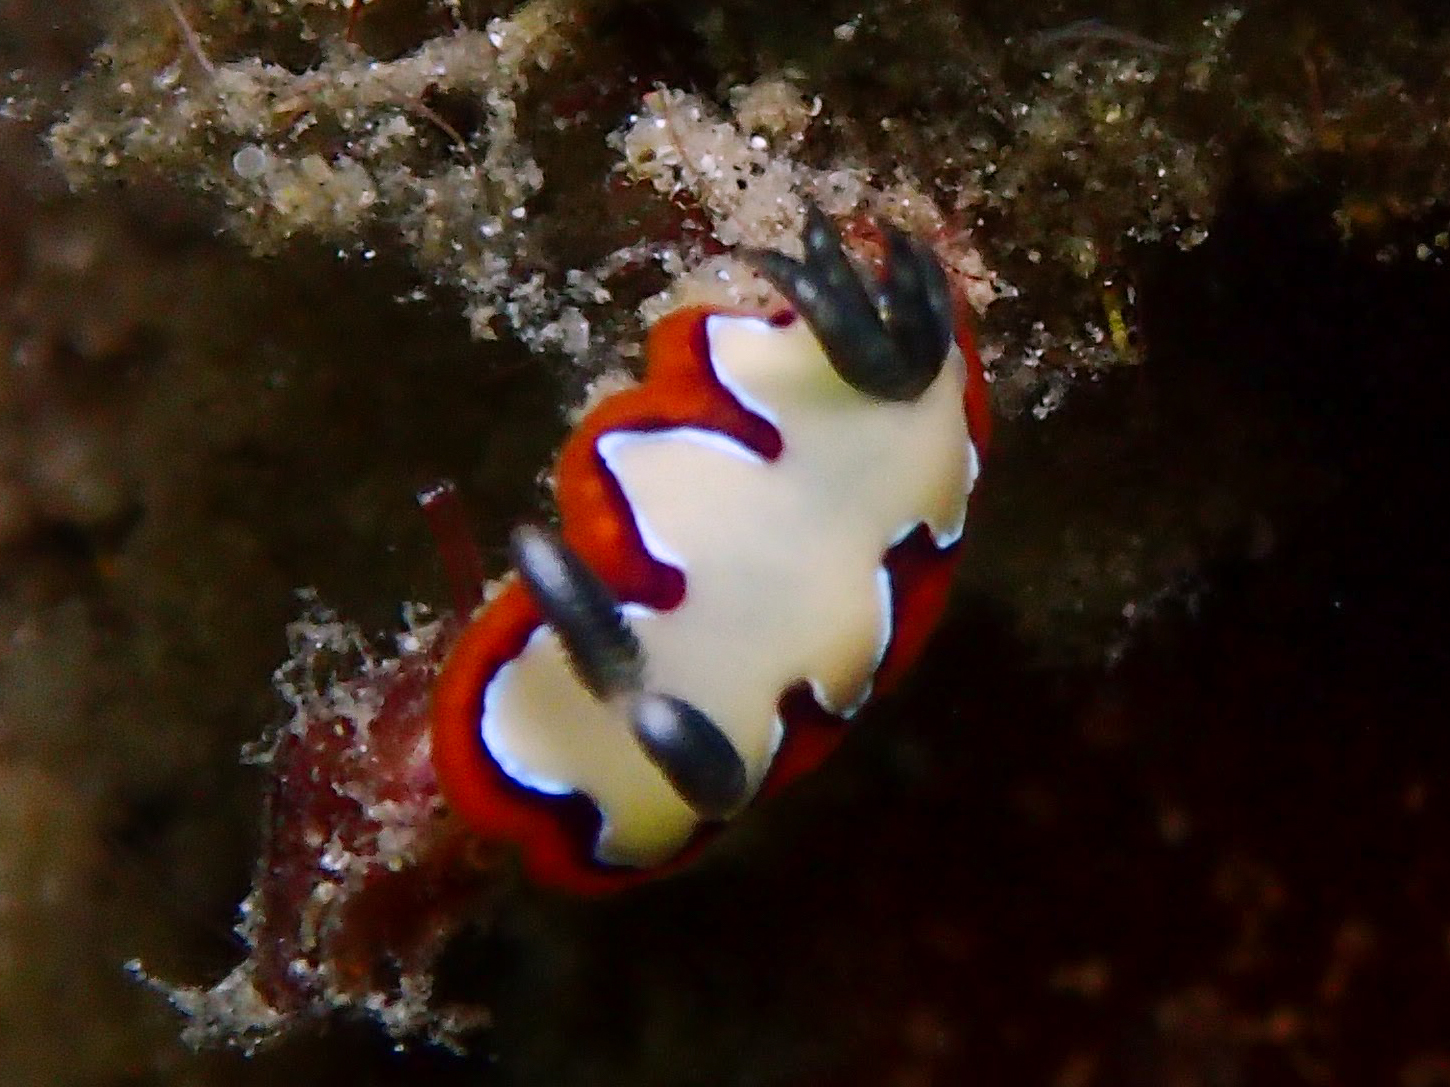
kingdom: Animalia
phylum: Mollusca
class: Gastropoda
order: Nudibranchia
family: Chromodorididae
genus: Goniobranchus
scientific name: Goniobranchus fidelis
